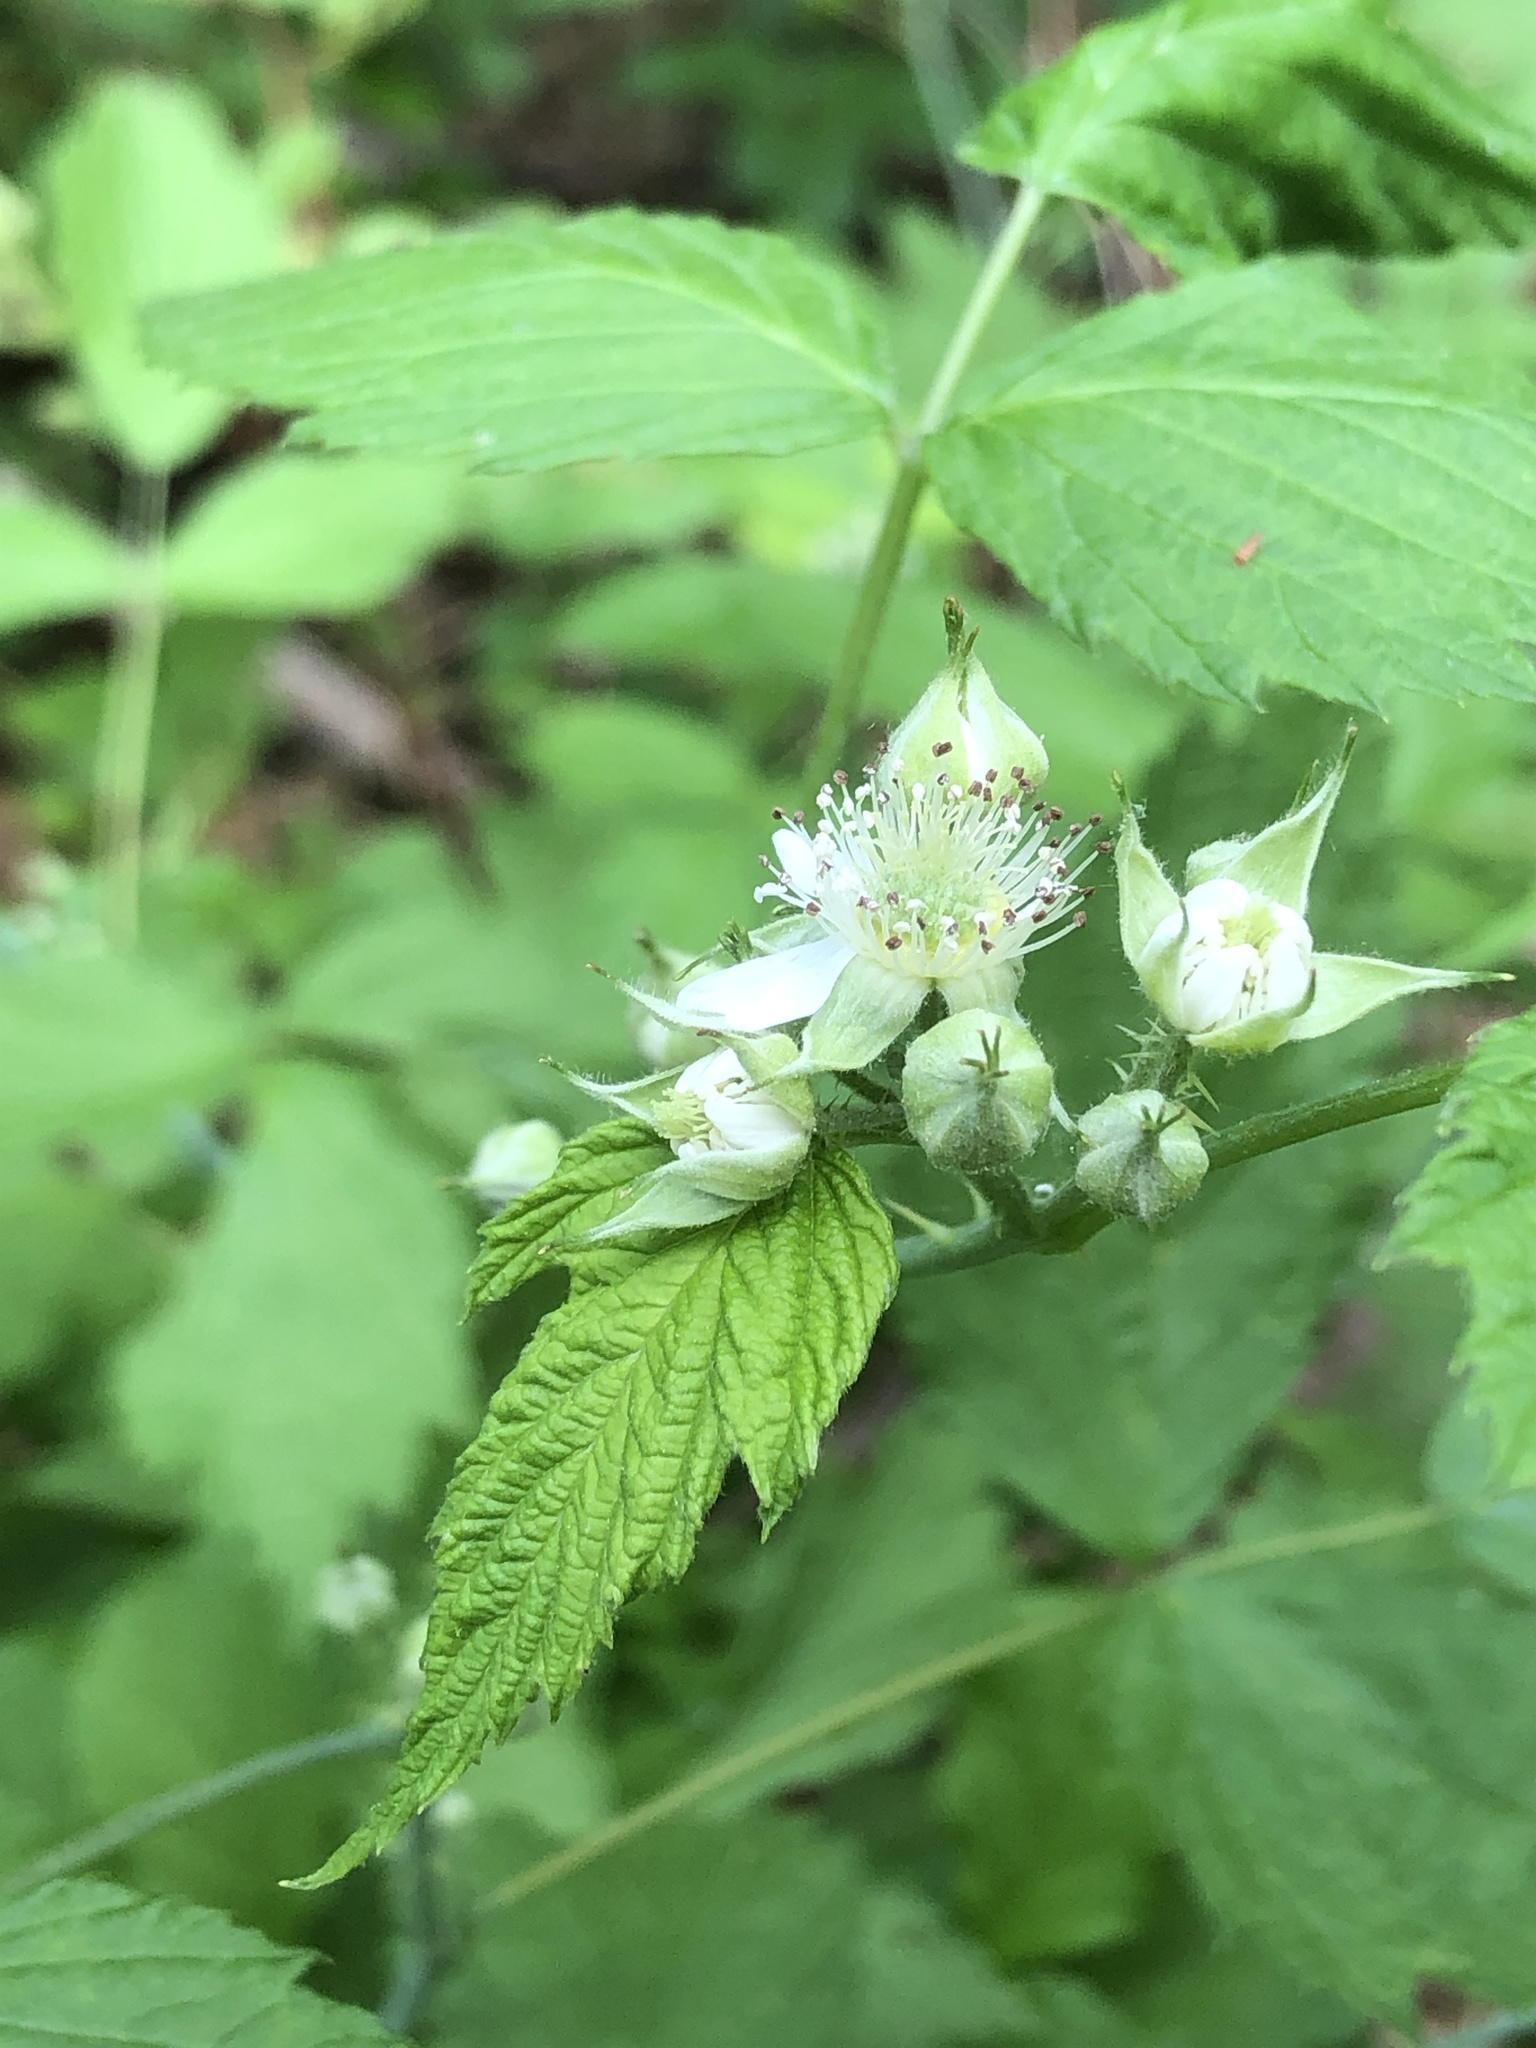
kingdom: Plantae
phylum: Tracheophyta
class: Magnoliopsida
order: Rosales
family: Rosaceae
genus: Rubus
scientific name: Rubus occidentalis
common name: Black raspberry
